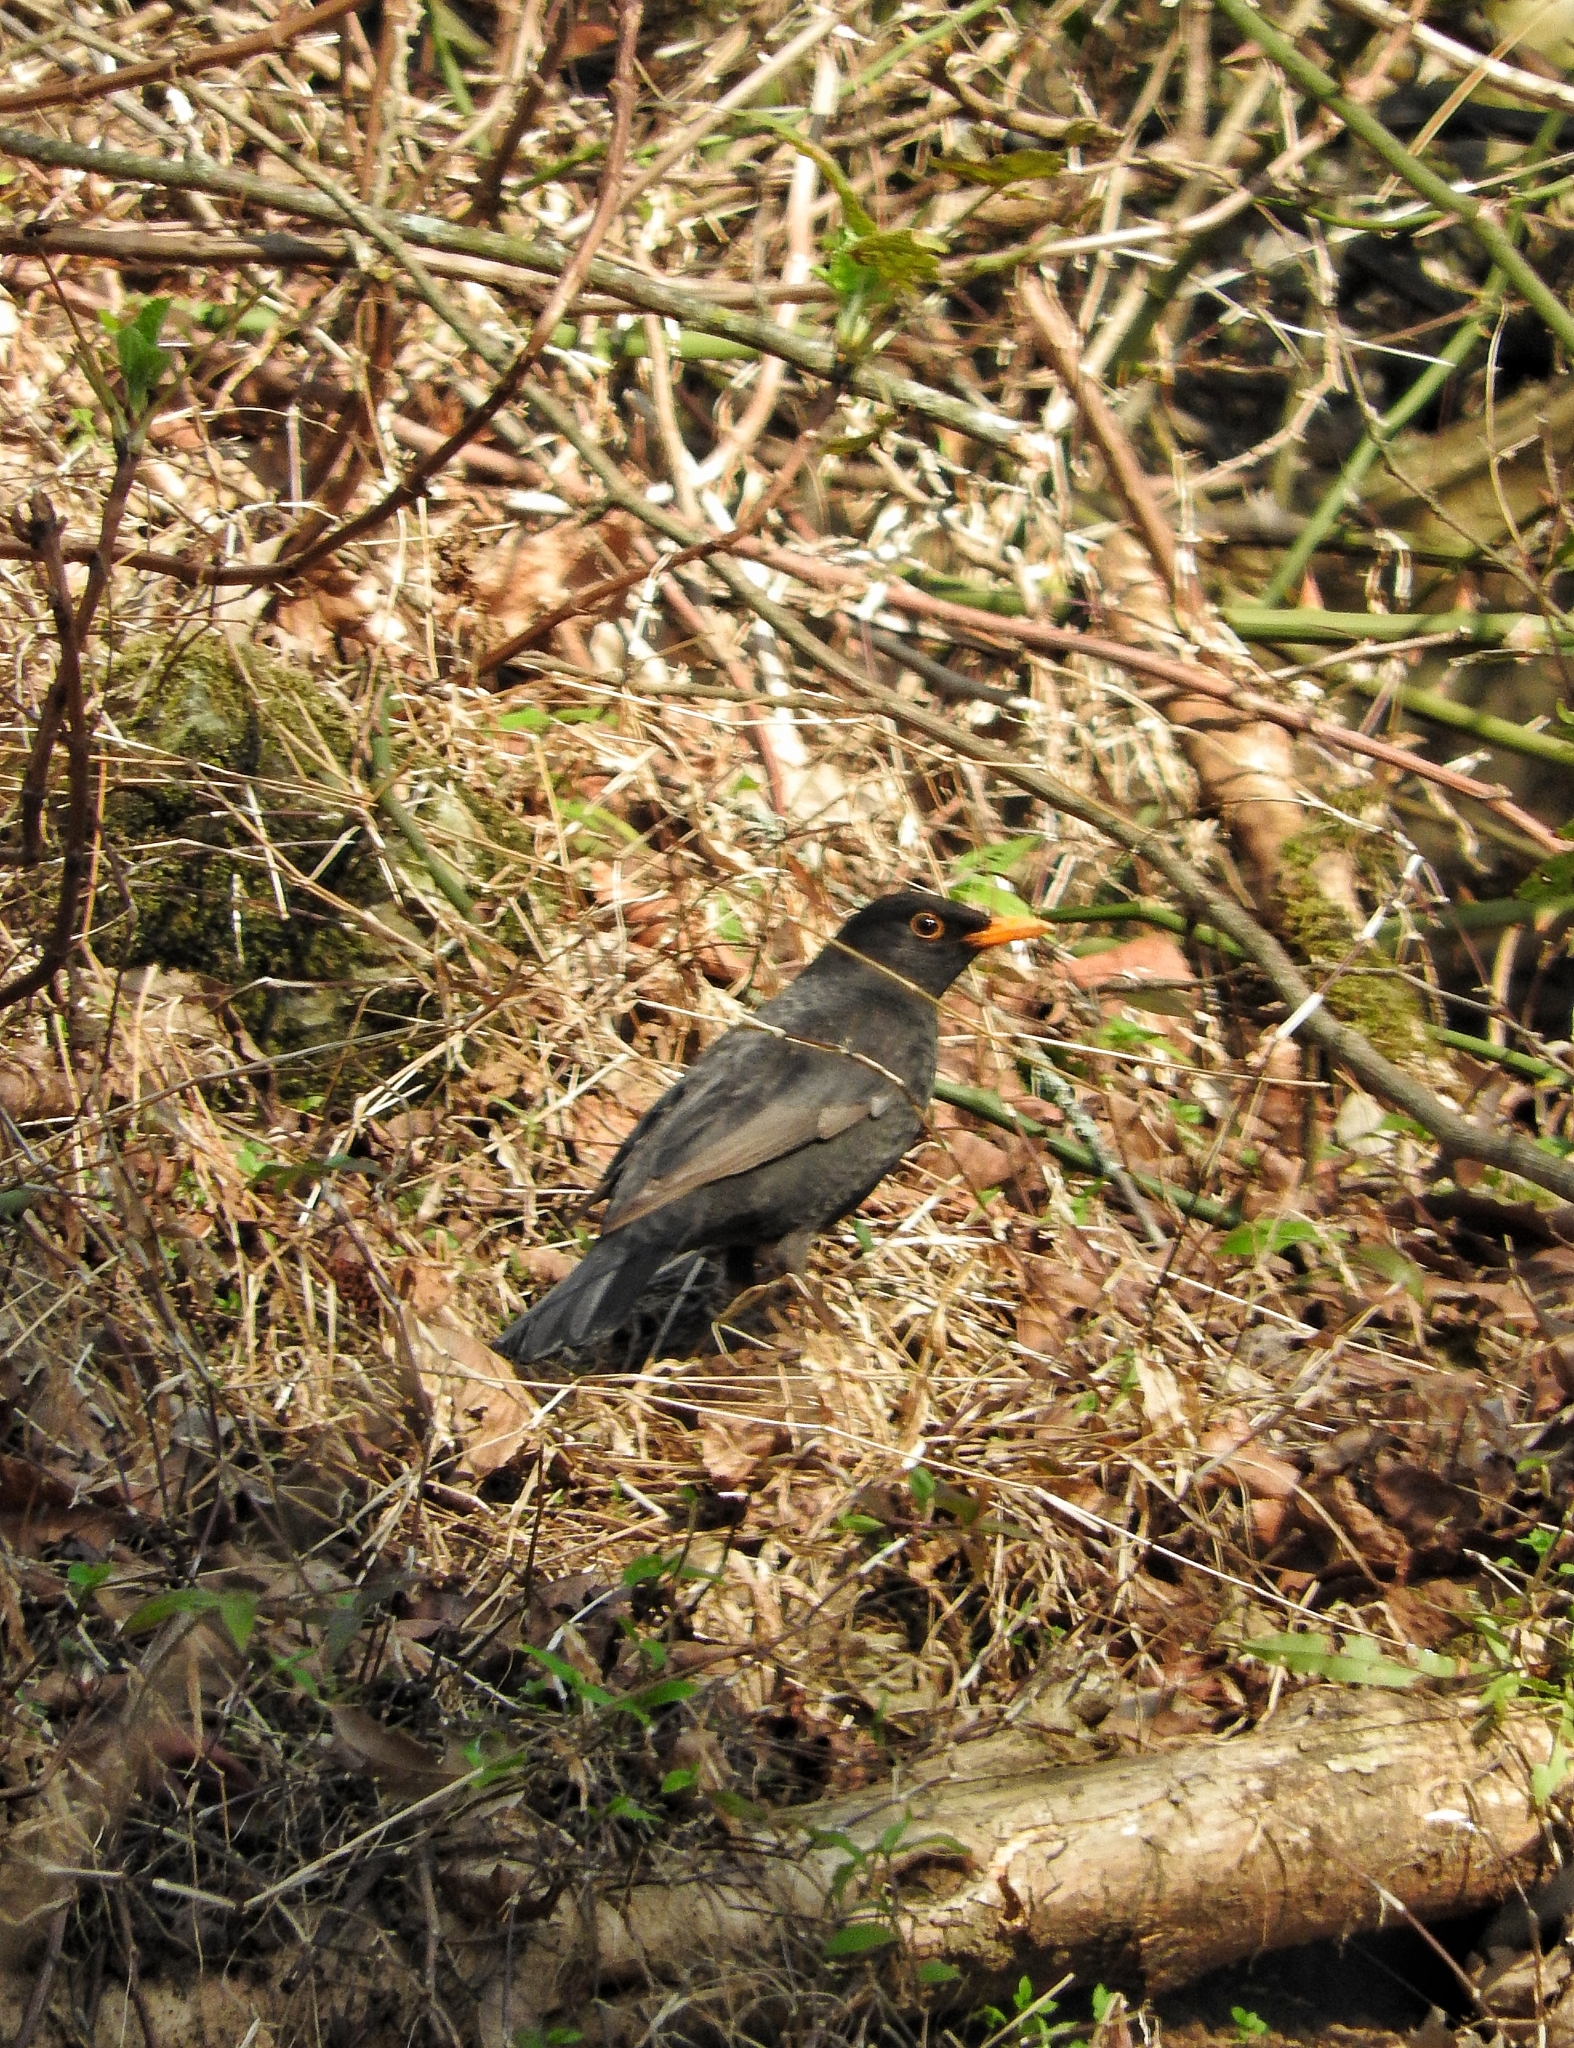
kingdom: Animalia
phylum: Chordata
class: Aves
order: Passeriformes
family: Turdidae
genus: Turdus
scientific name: Turdus merula
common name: Common blackbird
